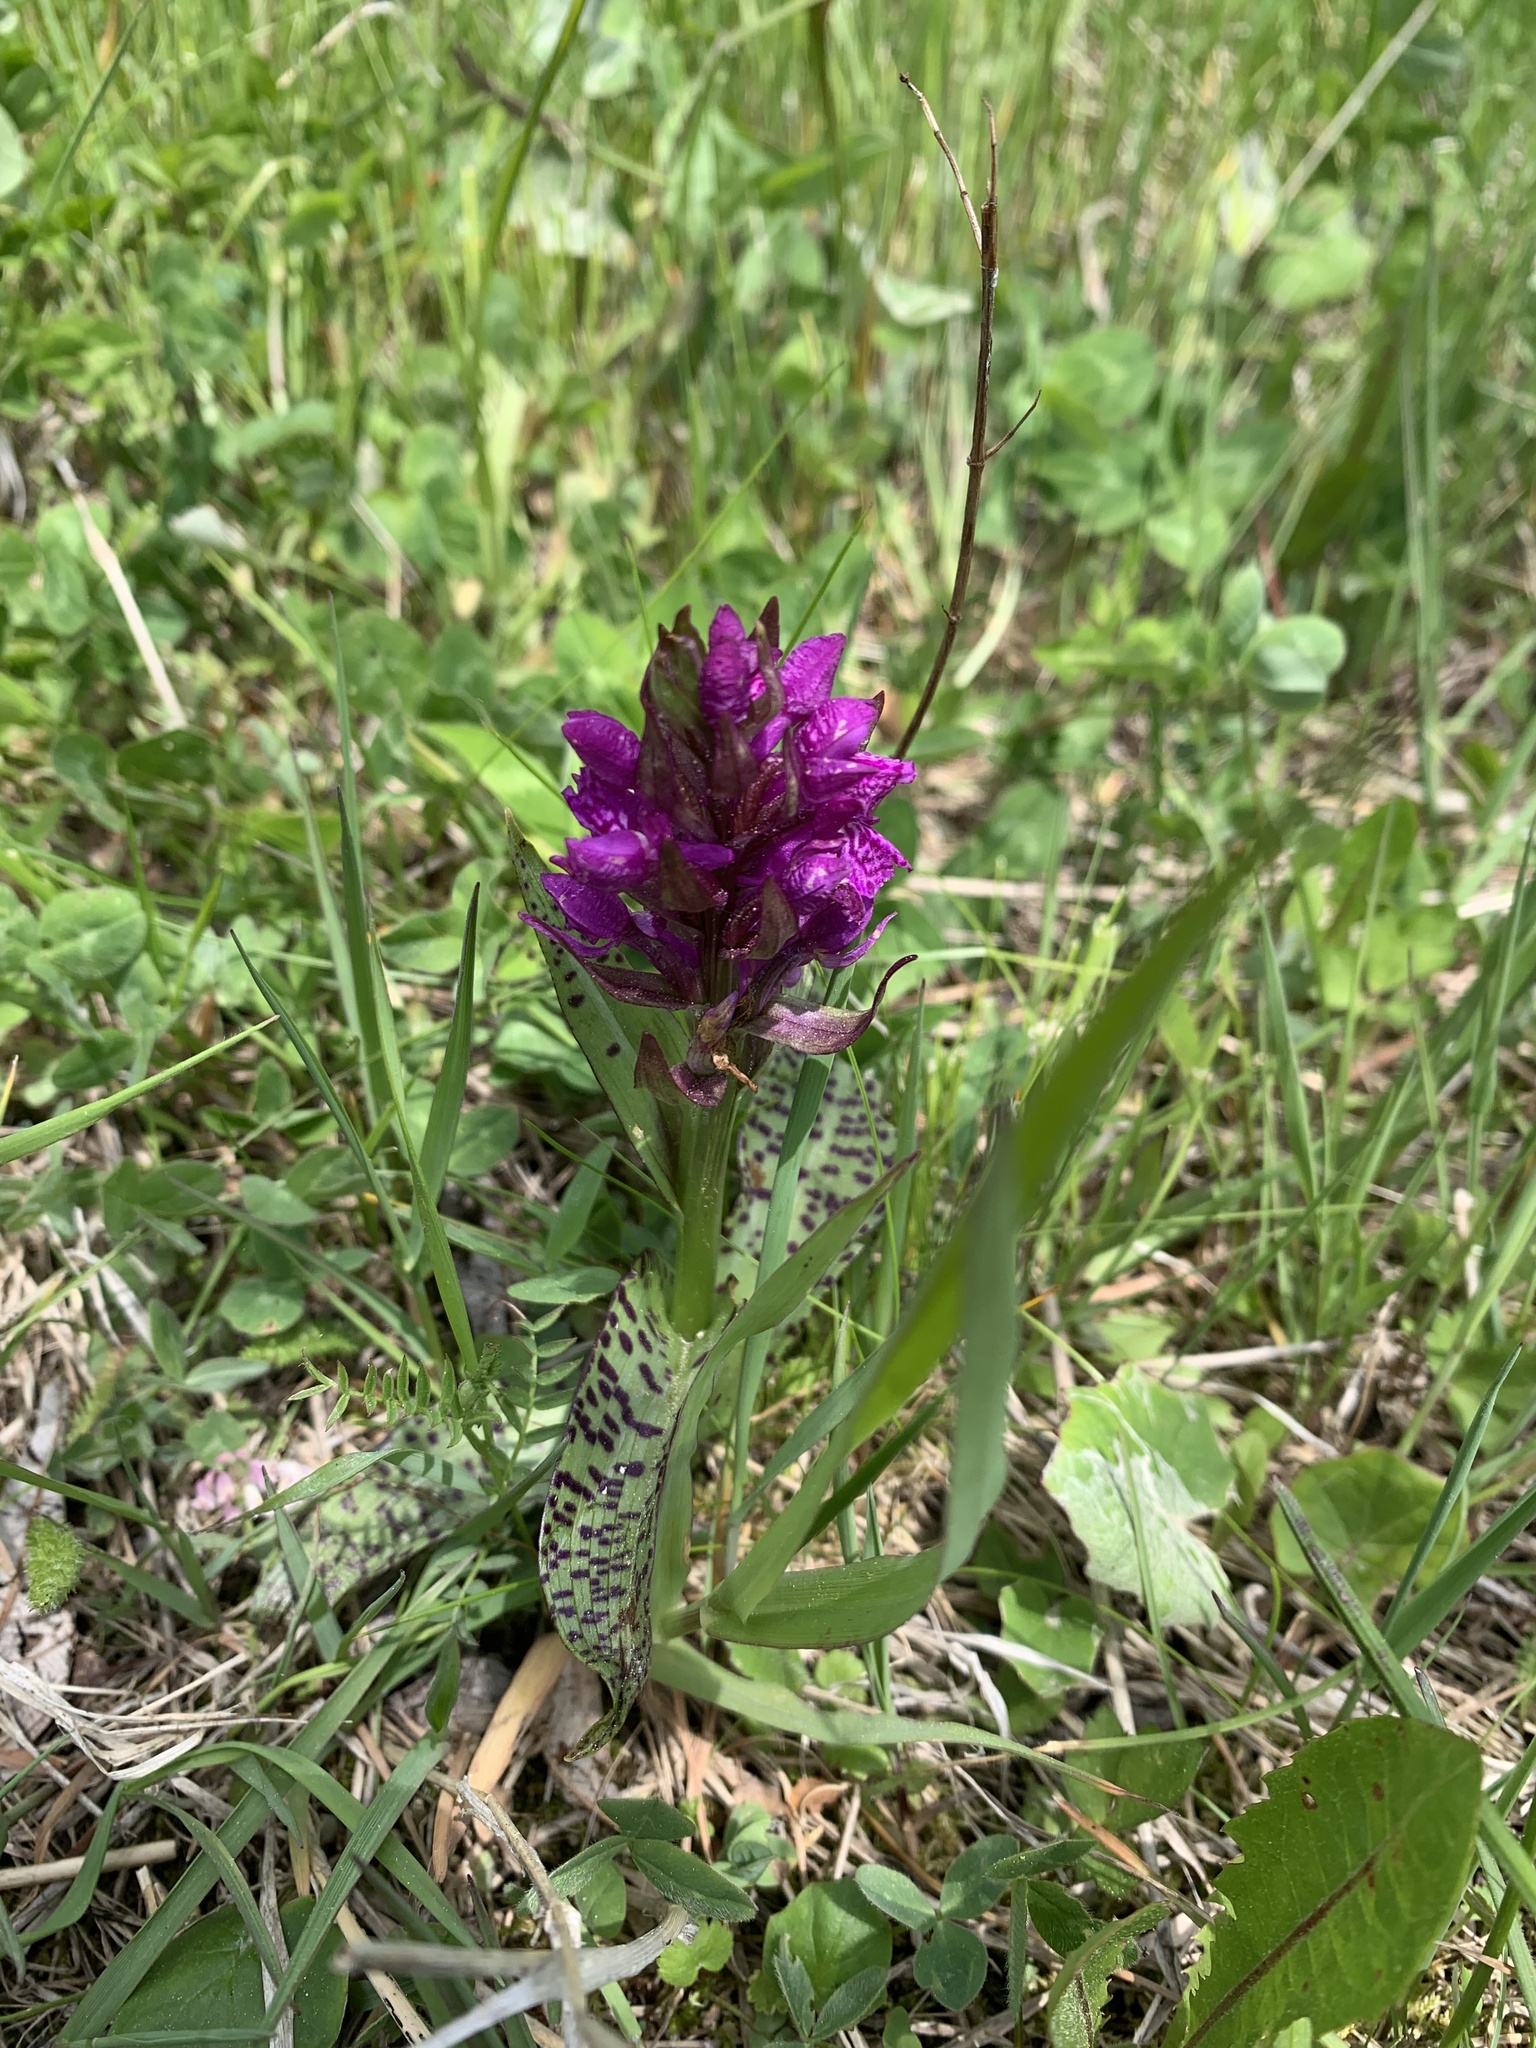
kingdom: Plantae
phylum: Tracheophyta
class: Liliopsida
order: Asparagales
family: Orchidaceae
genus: Dactylorhiza
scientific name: Dactylorhiza majalis
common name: Marsh orchid
